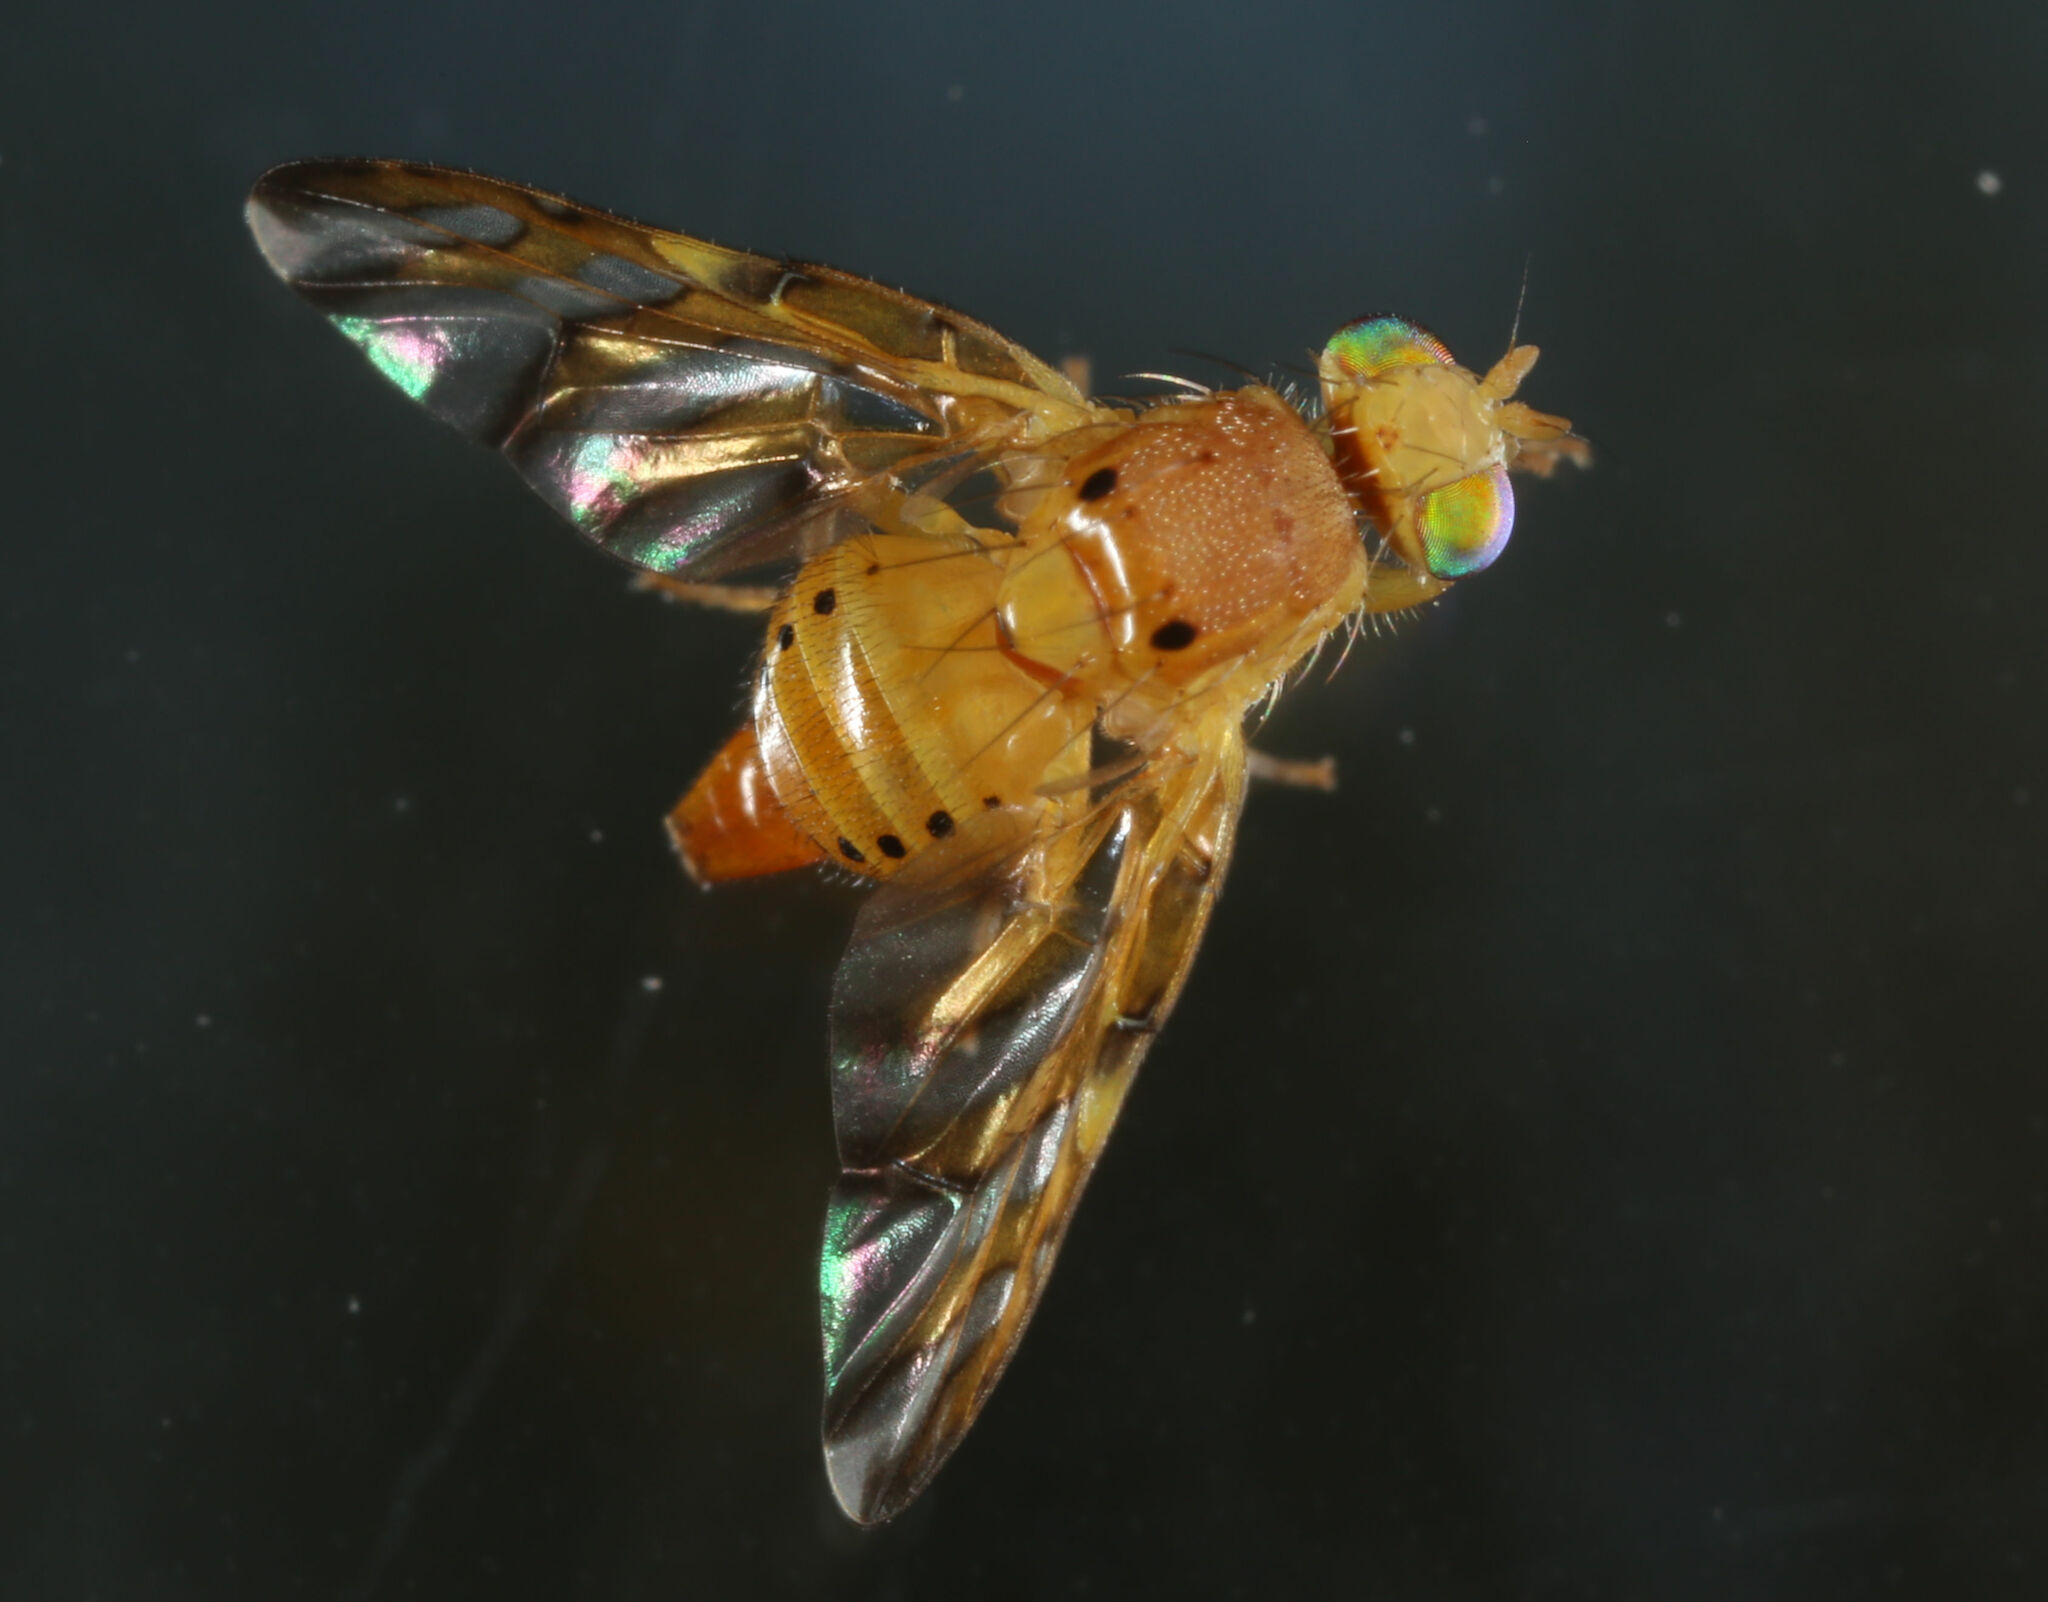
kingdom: Animalia
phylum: Arthropoda
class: Insecta
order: Diptera
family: Tephritidae
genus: Tomoplagia
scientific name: Tomoplagia cressoni
